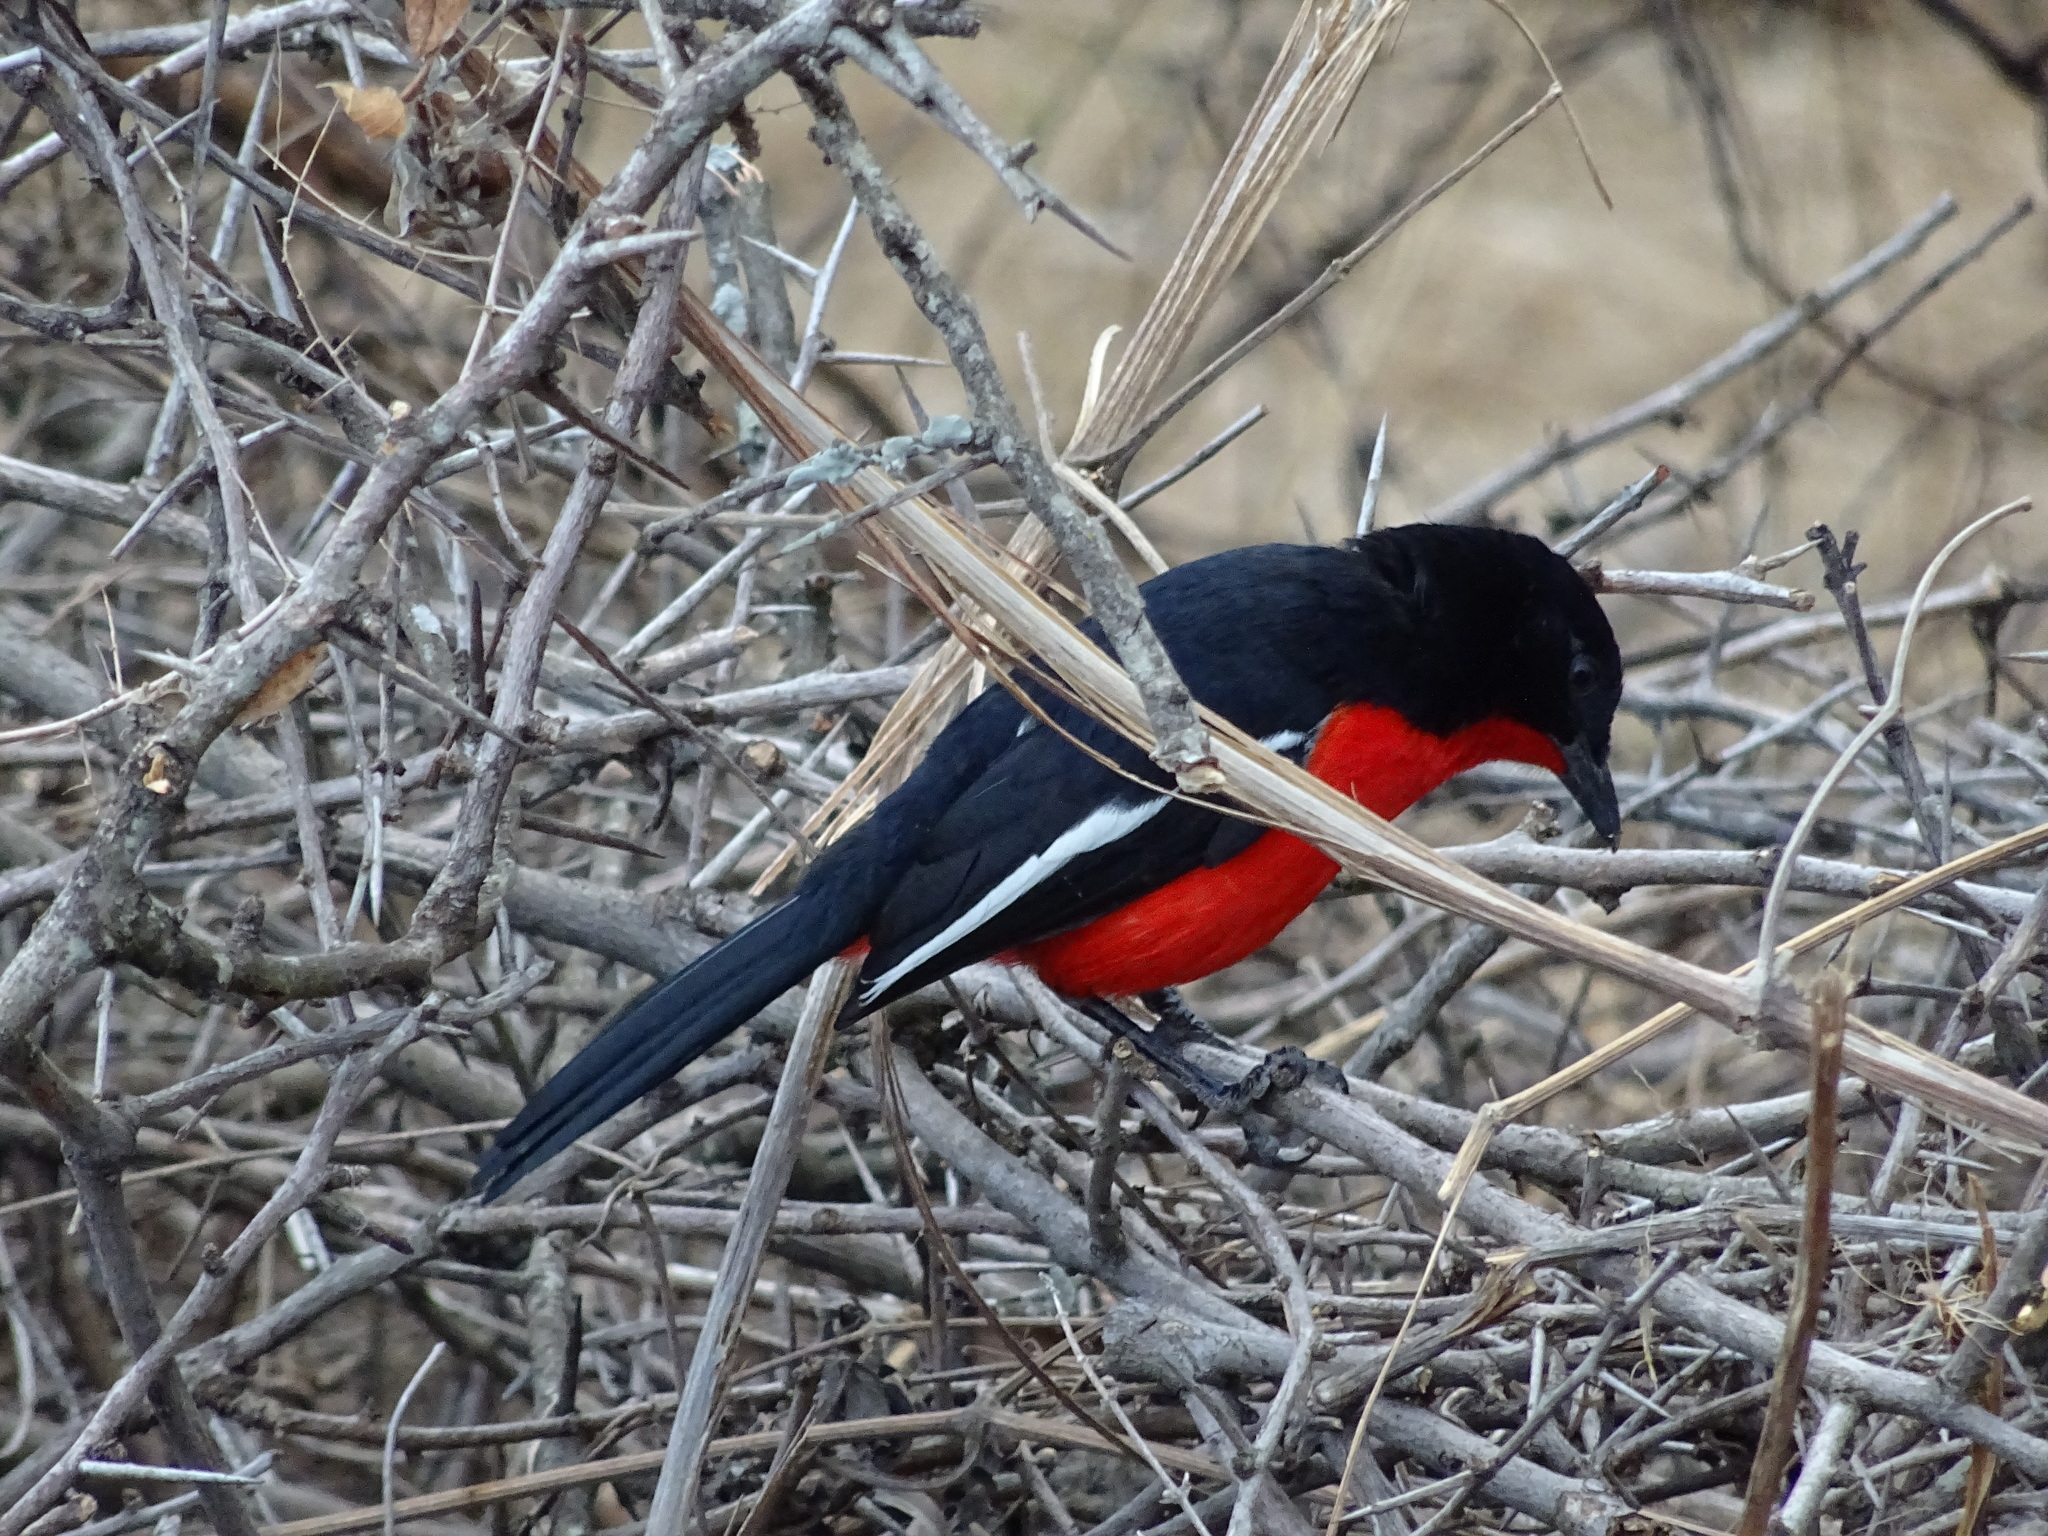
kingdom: Animalia
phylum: Chordata
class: Aves
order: Passeriformes
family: Malaconotidae
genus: Laniarius
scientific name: Laniarius atrococcineus
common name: Crimson-breasted shrike
